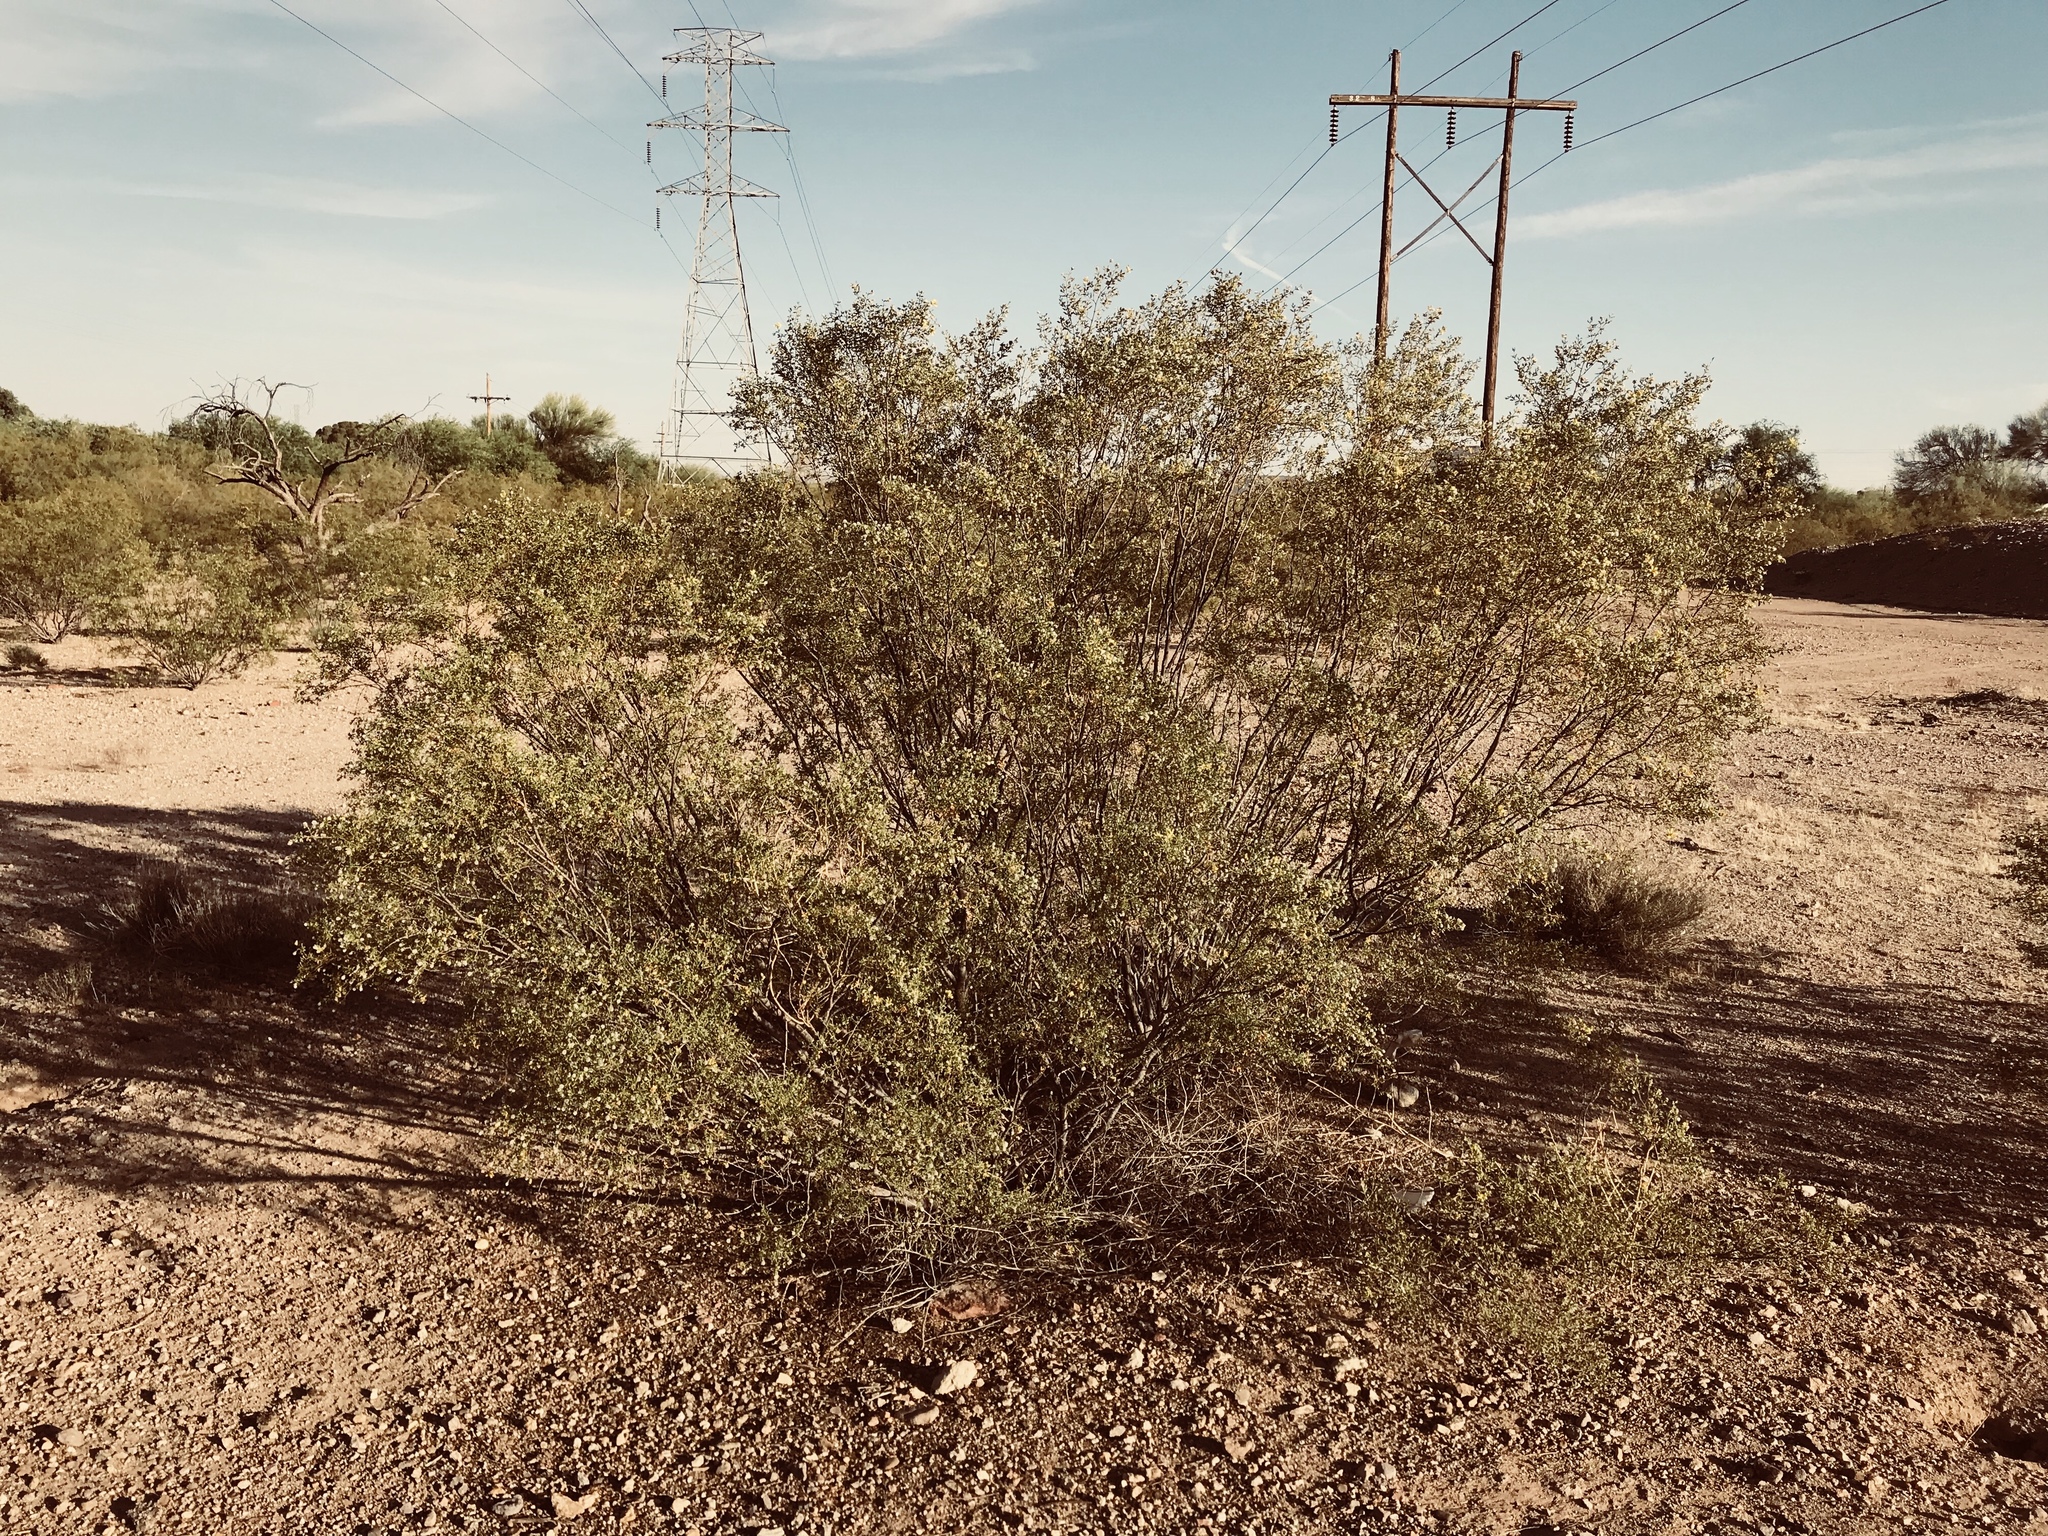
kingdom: Plantae
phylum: Tracheophyta
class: Magnoliopsida
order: Zygophyllales
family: Zygophyllaceae
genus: Larrea
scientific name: Larrea tridentata
